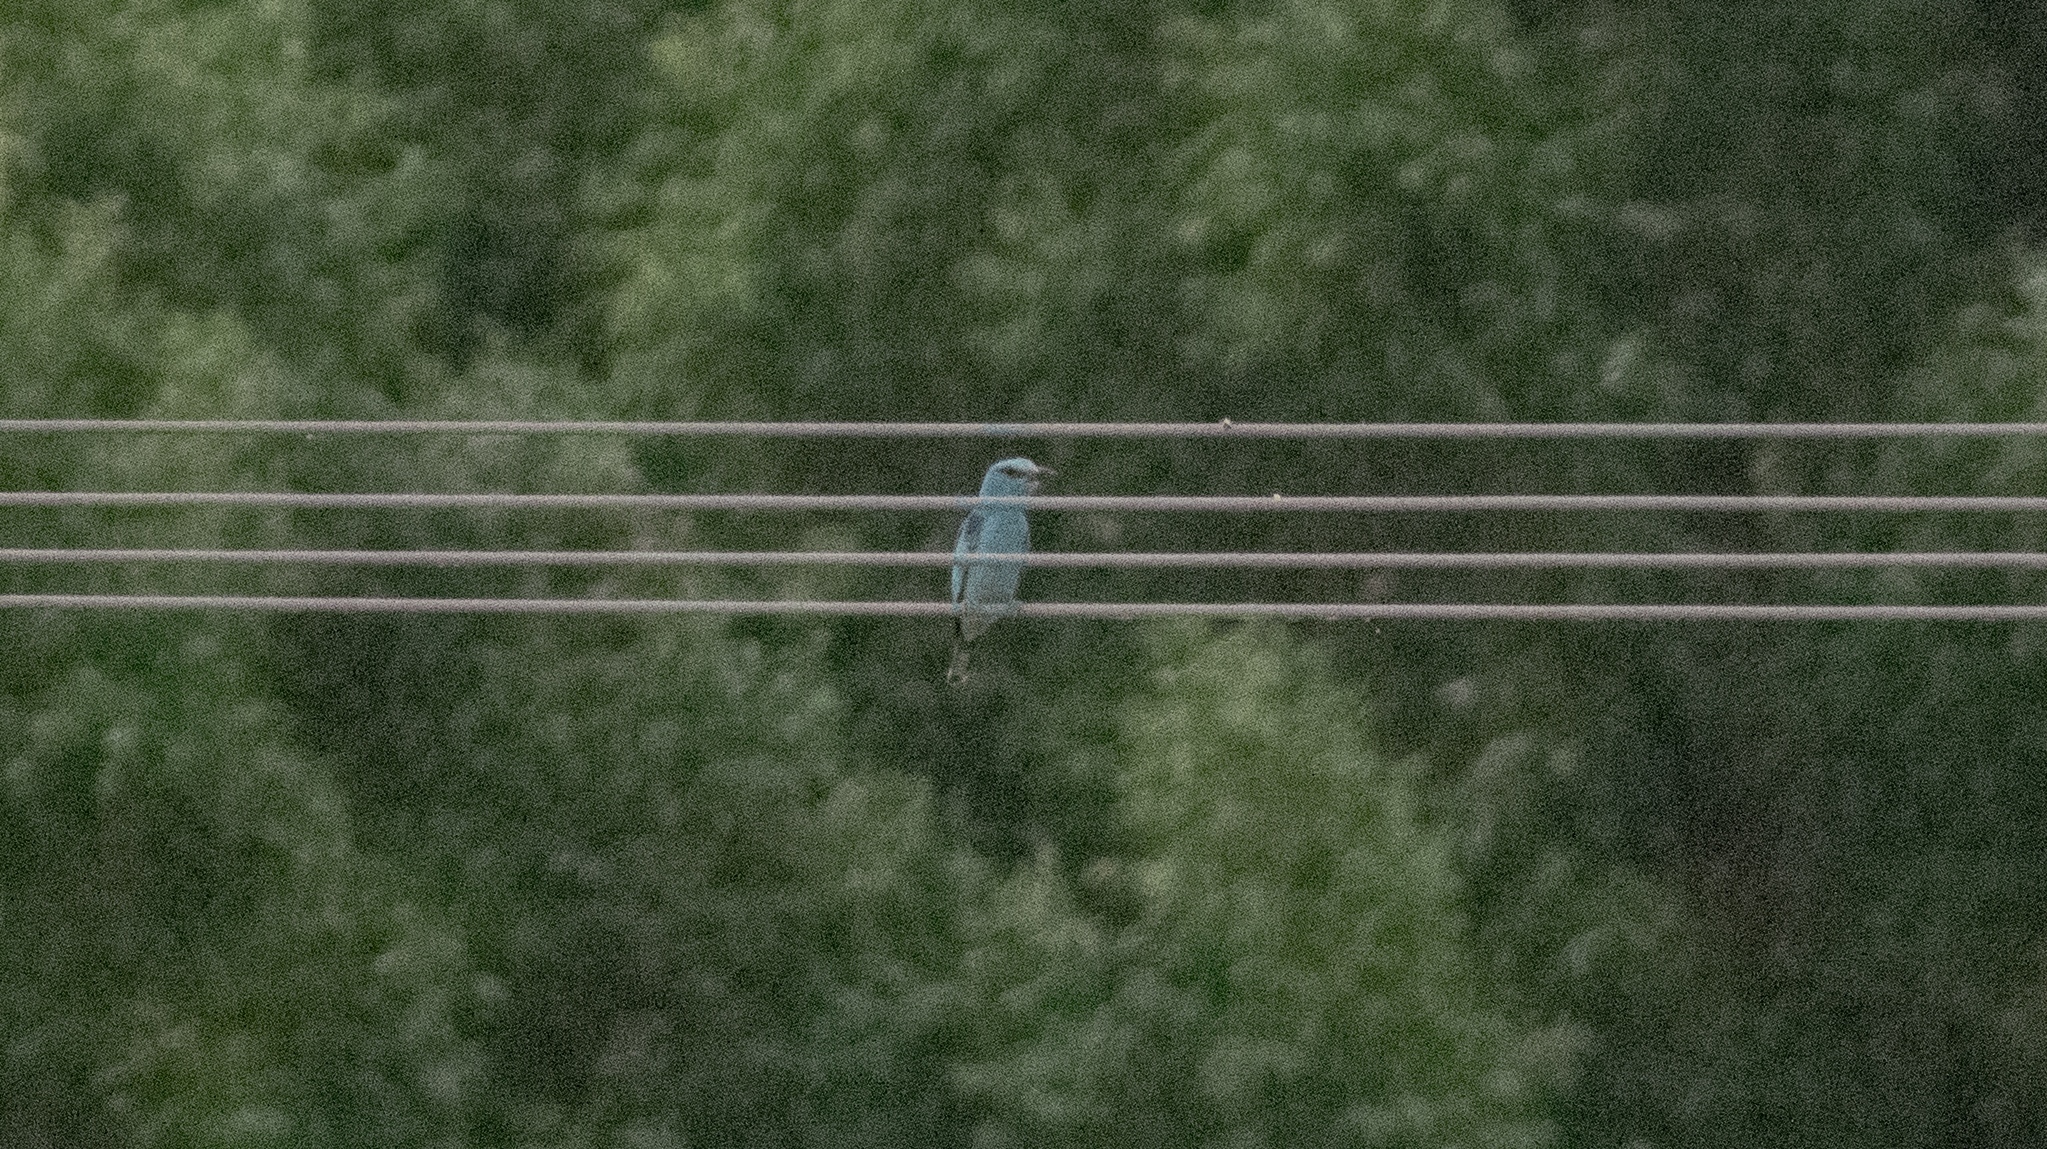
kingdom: Animalia
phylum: Chordata
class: Aves
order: Coraciiformes
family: Coraciidae
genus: Coracias
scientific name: Coracias garrulus
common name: European roller
